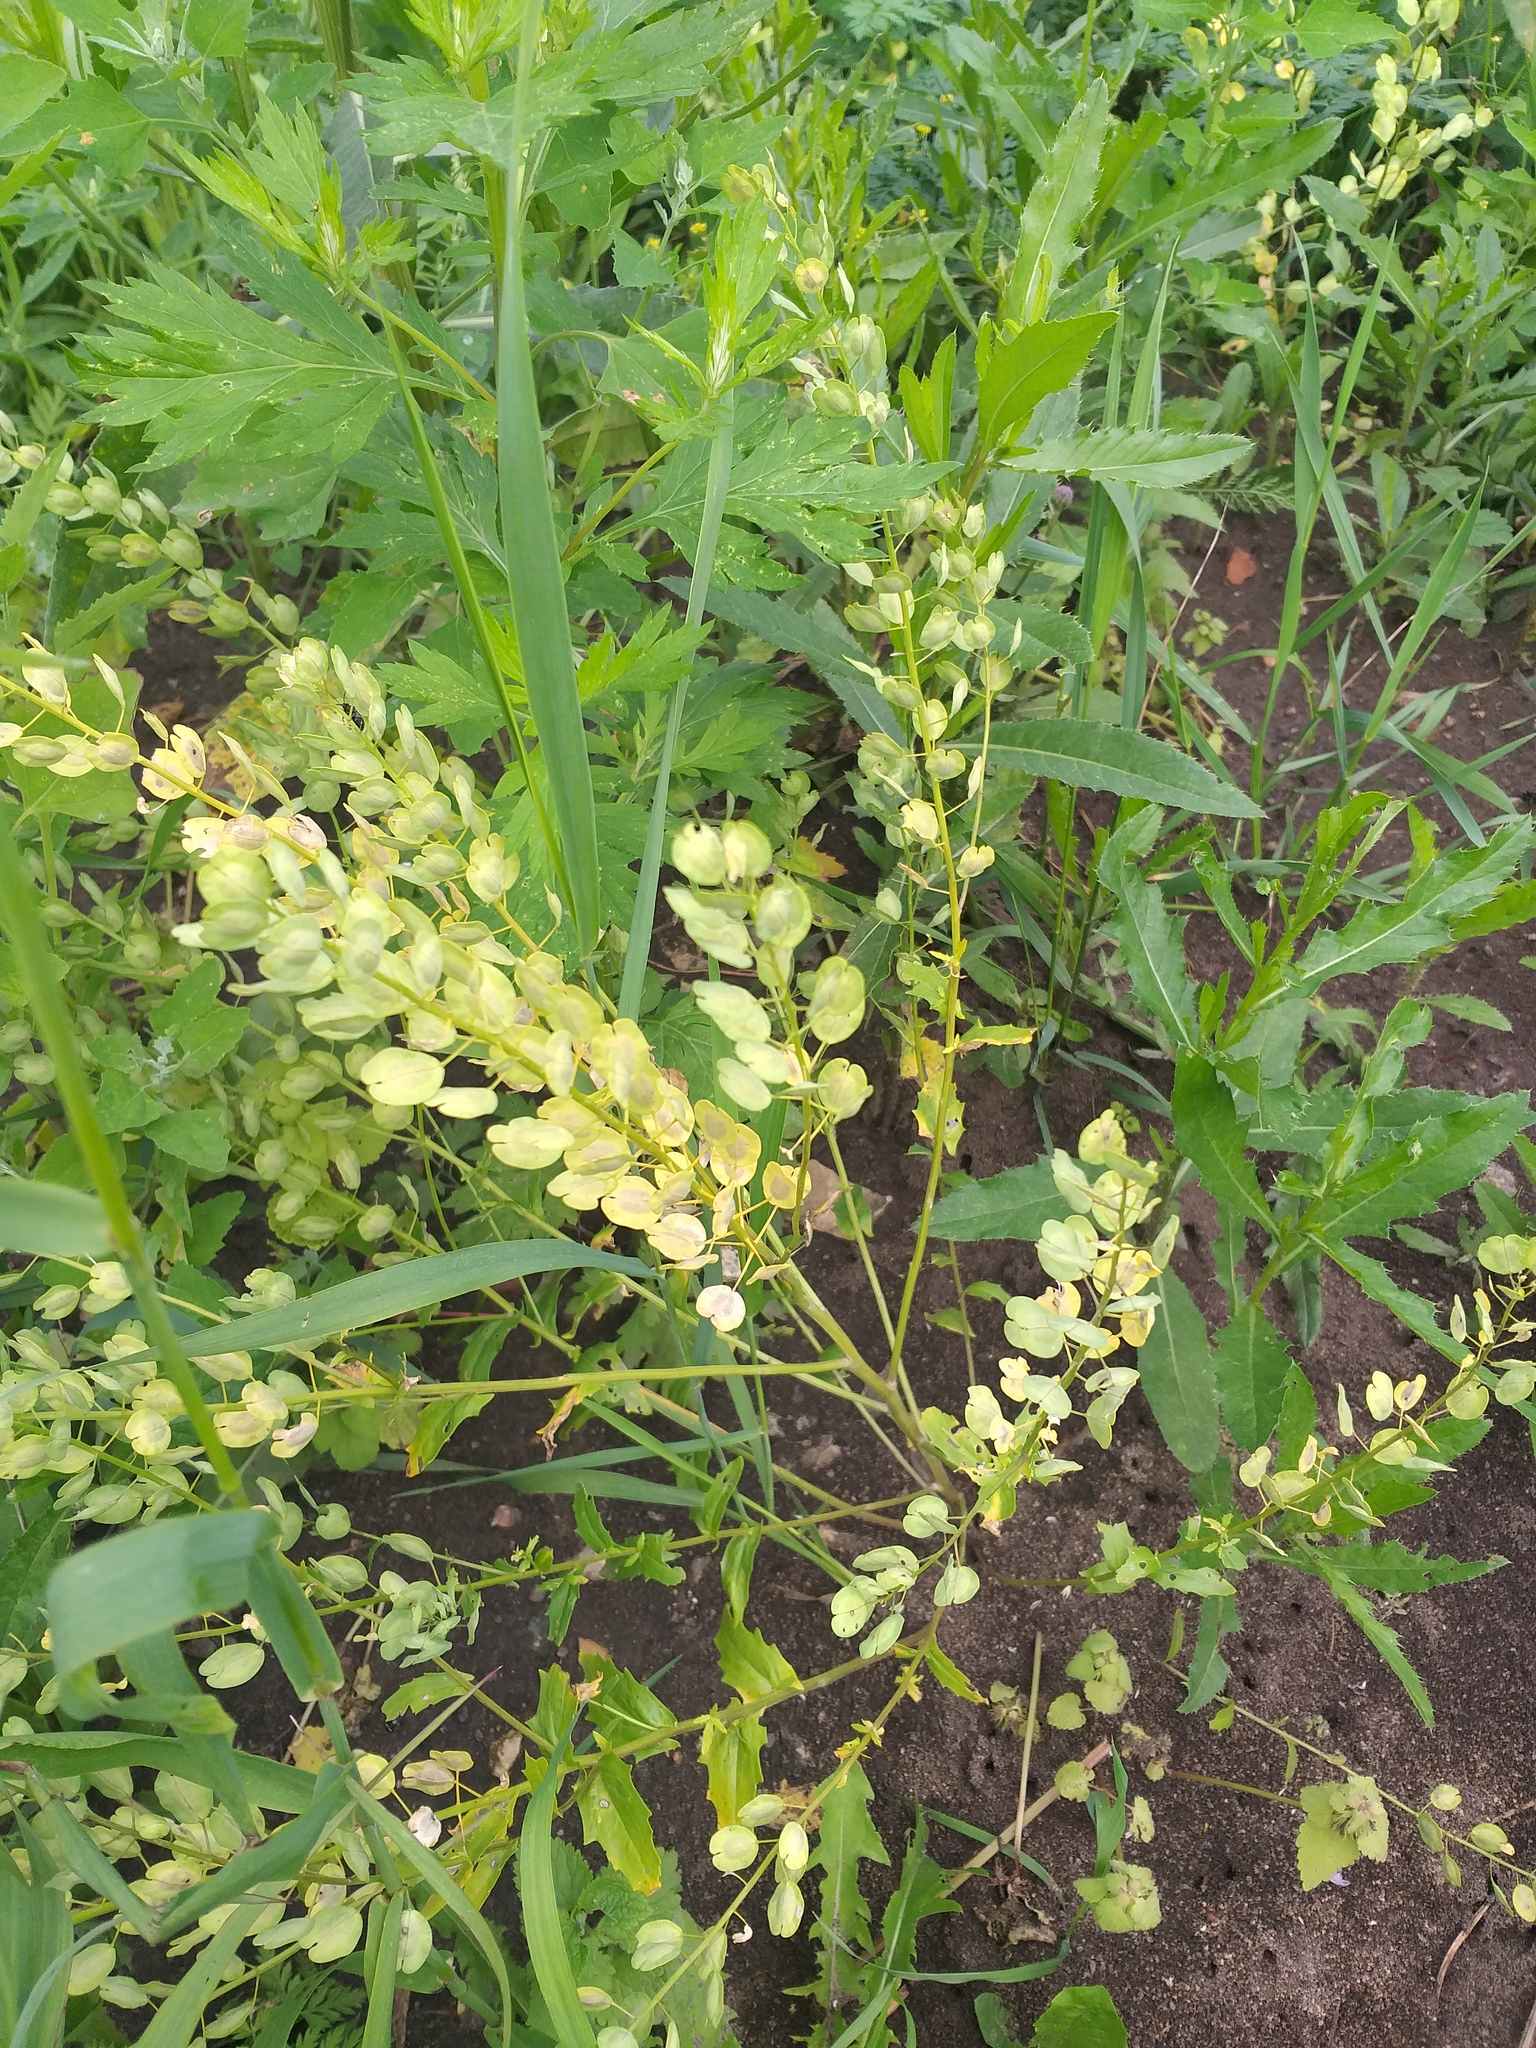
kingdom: Plantae
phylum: Tracheophyta
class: Magnoliopsida
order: Brassicales
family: Brassicaceae
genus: Thlaspi
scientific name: Thlaspi arvense
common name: Field pennycress
